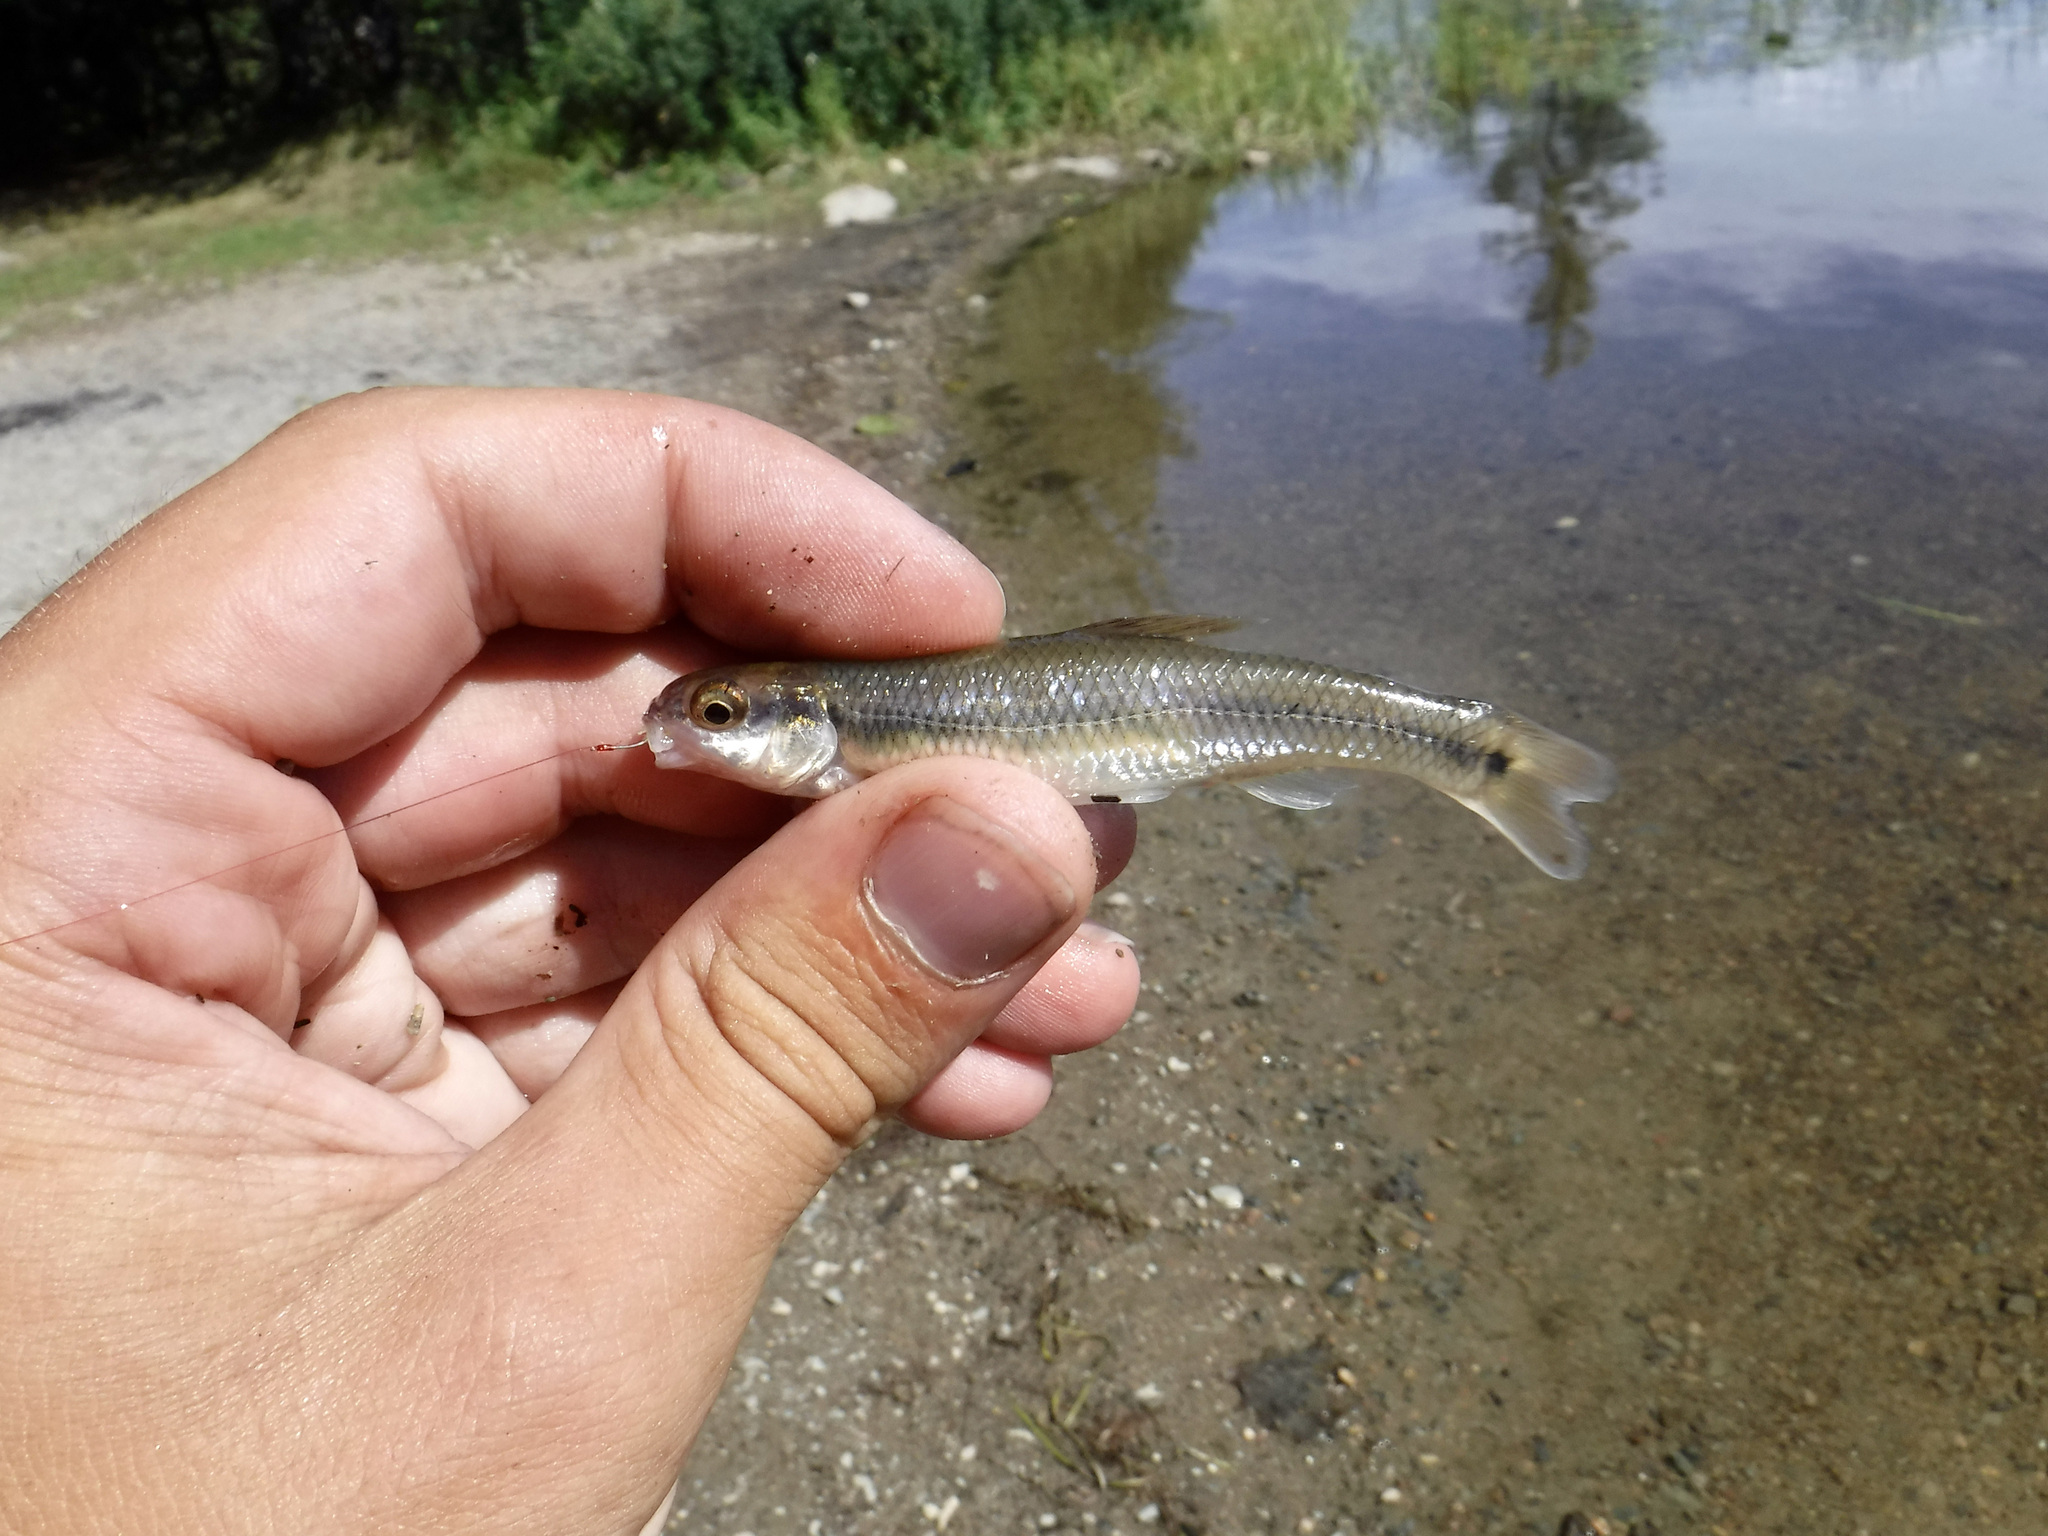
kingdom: Animalia
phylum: Chordata
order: Cypriniformes
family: Cyprinidae
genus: Pimephales
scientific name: Pimephales notatus
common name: Bluntnose minnow
